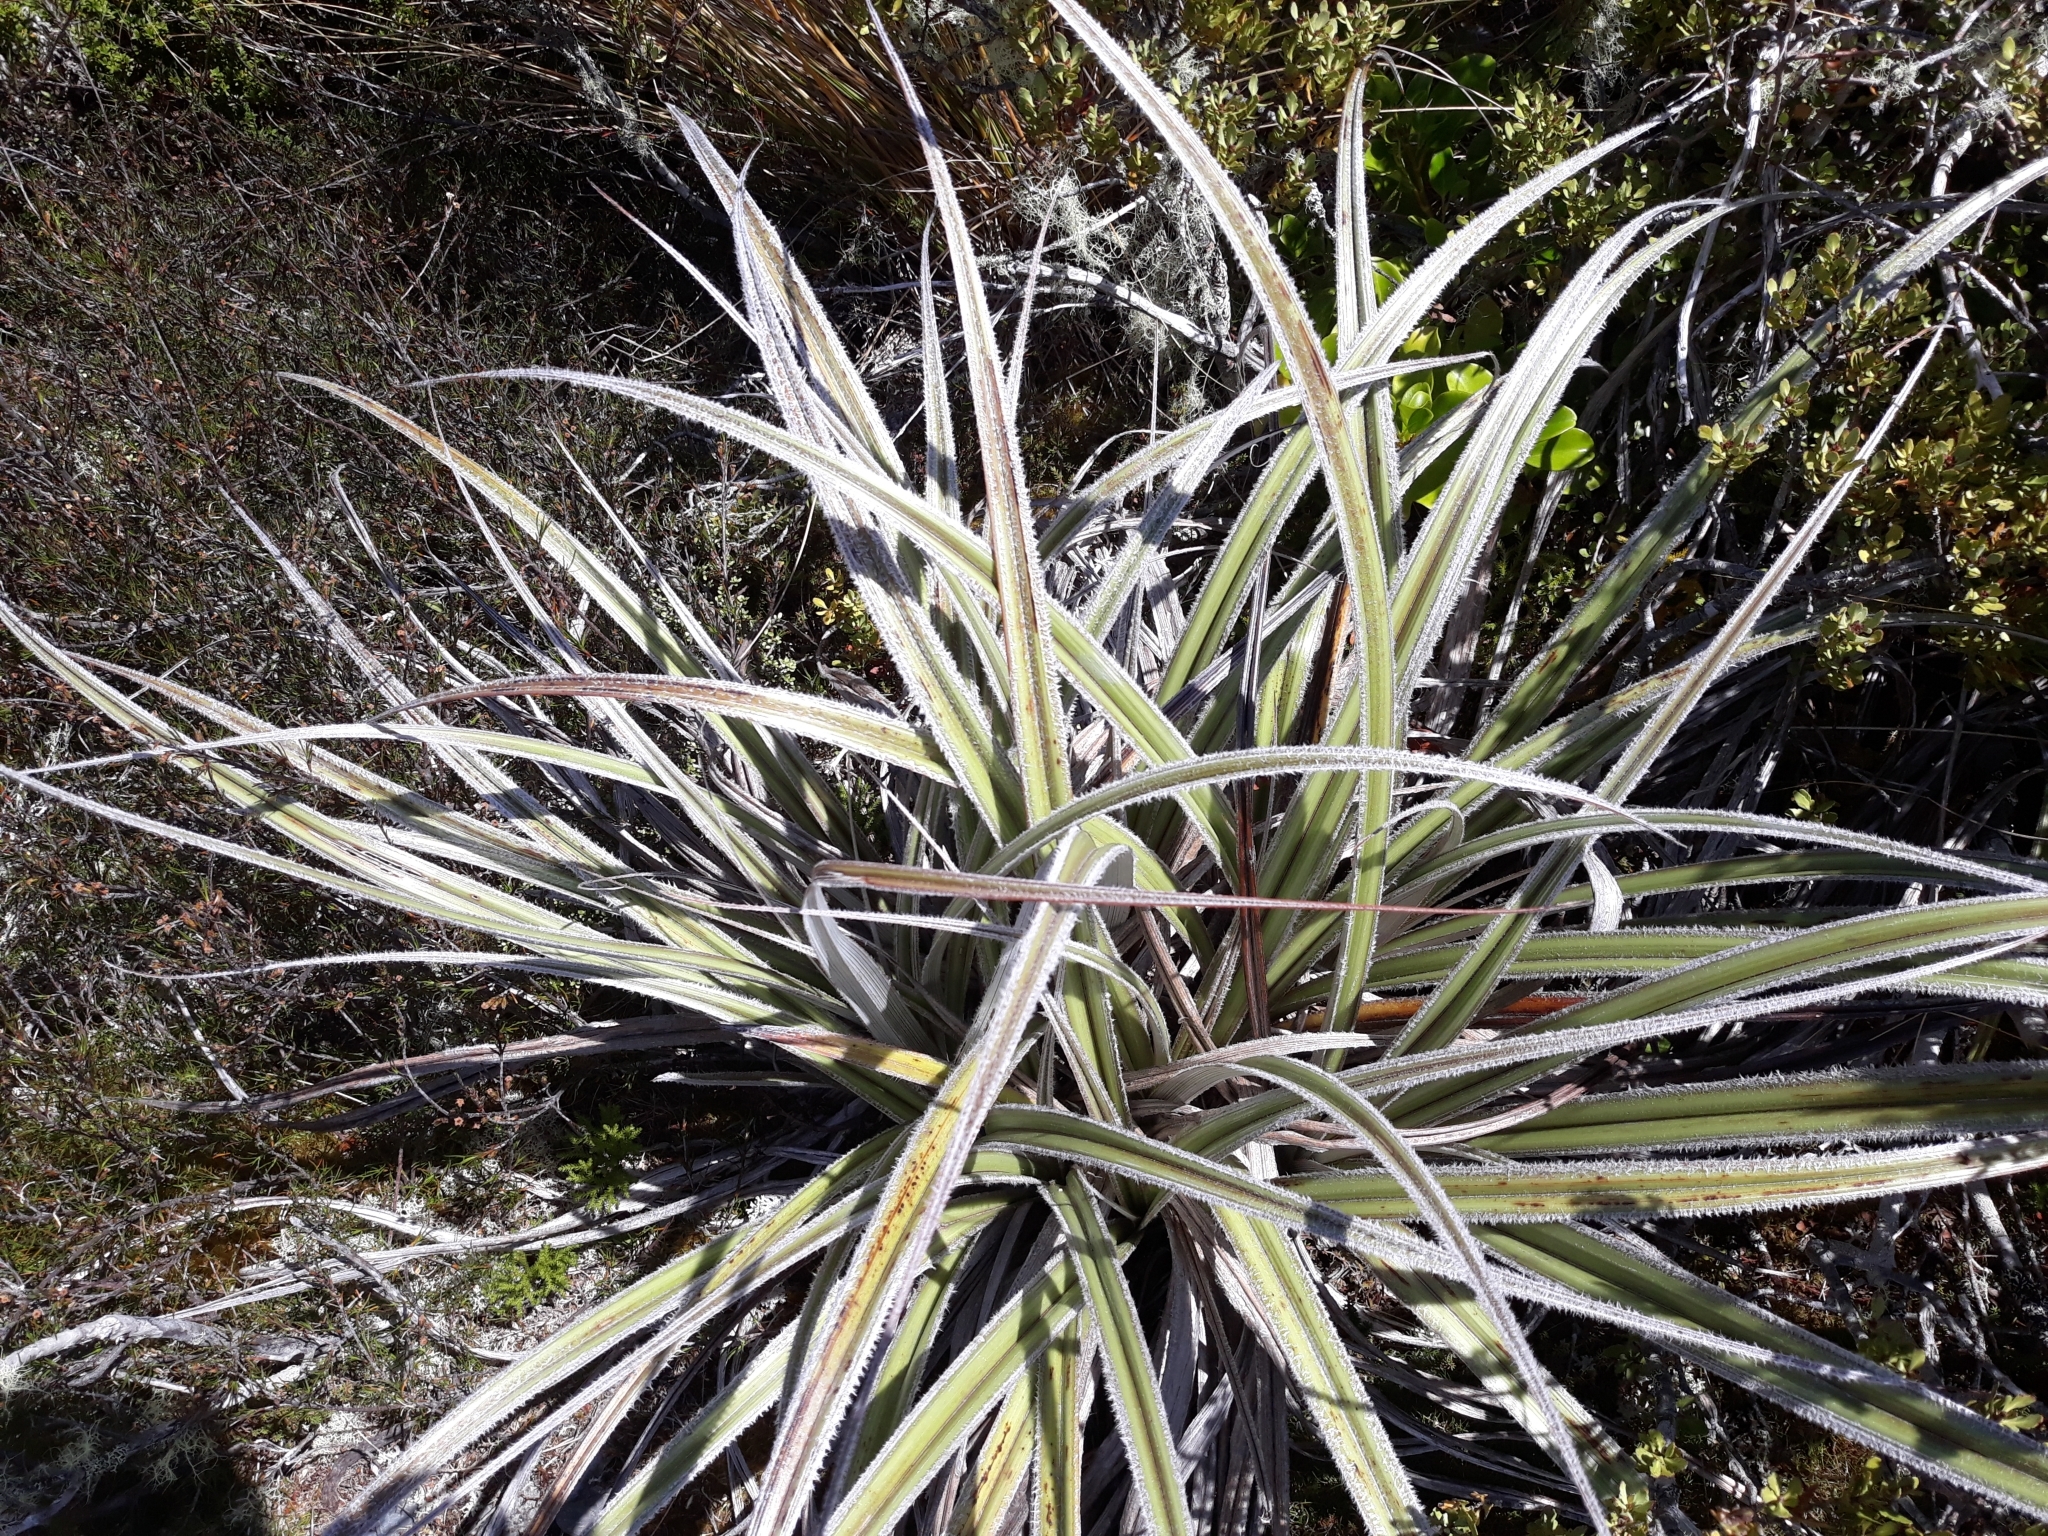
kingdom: Plantae
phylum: Tracheophyta
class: Liliopsida
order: Asparagales
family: Asteliaceae
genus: Astelia
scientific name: Astelia nervosa
